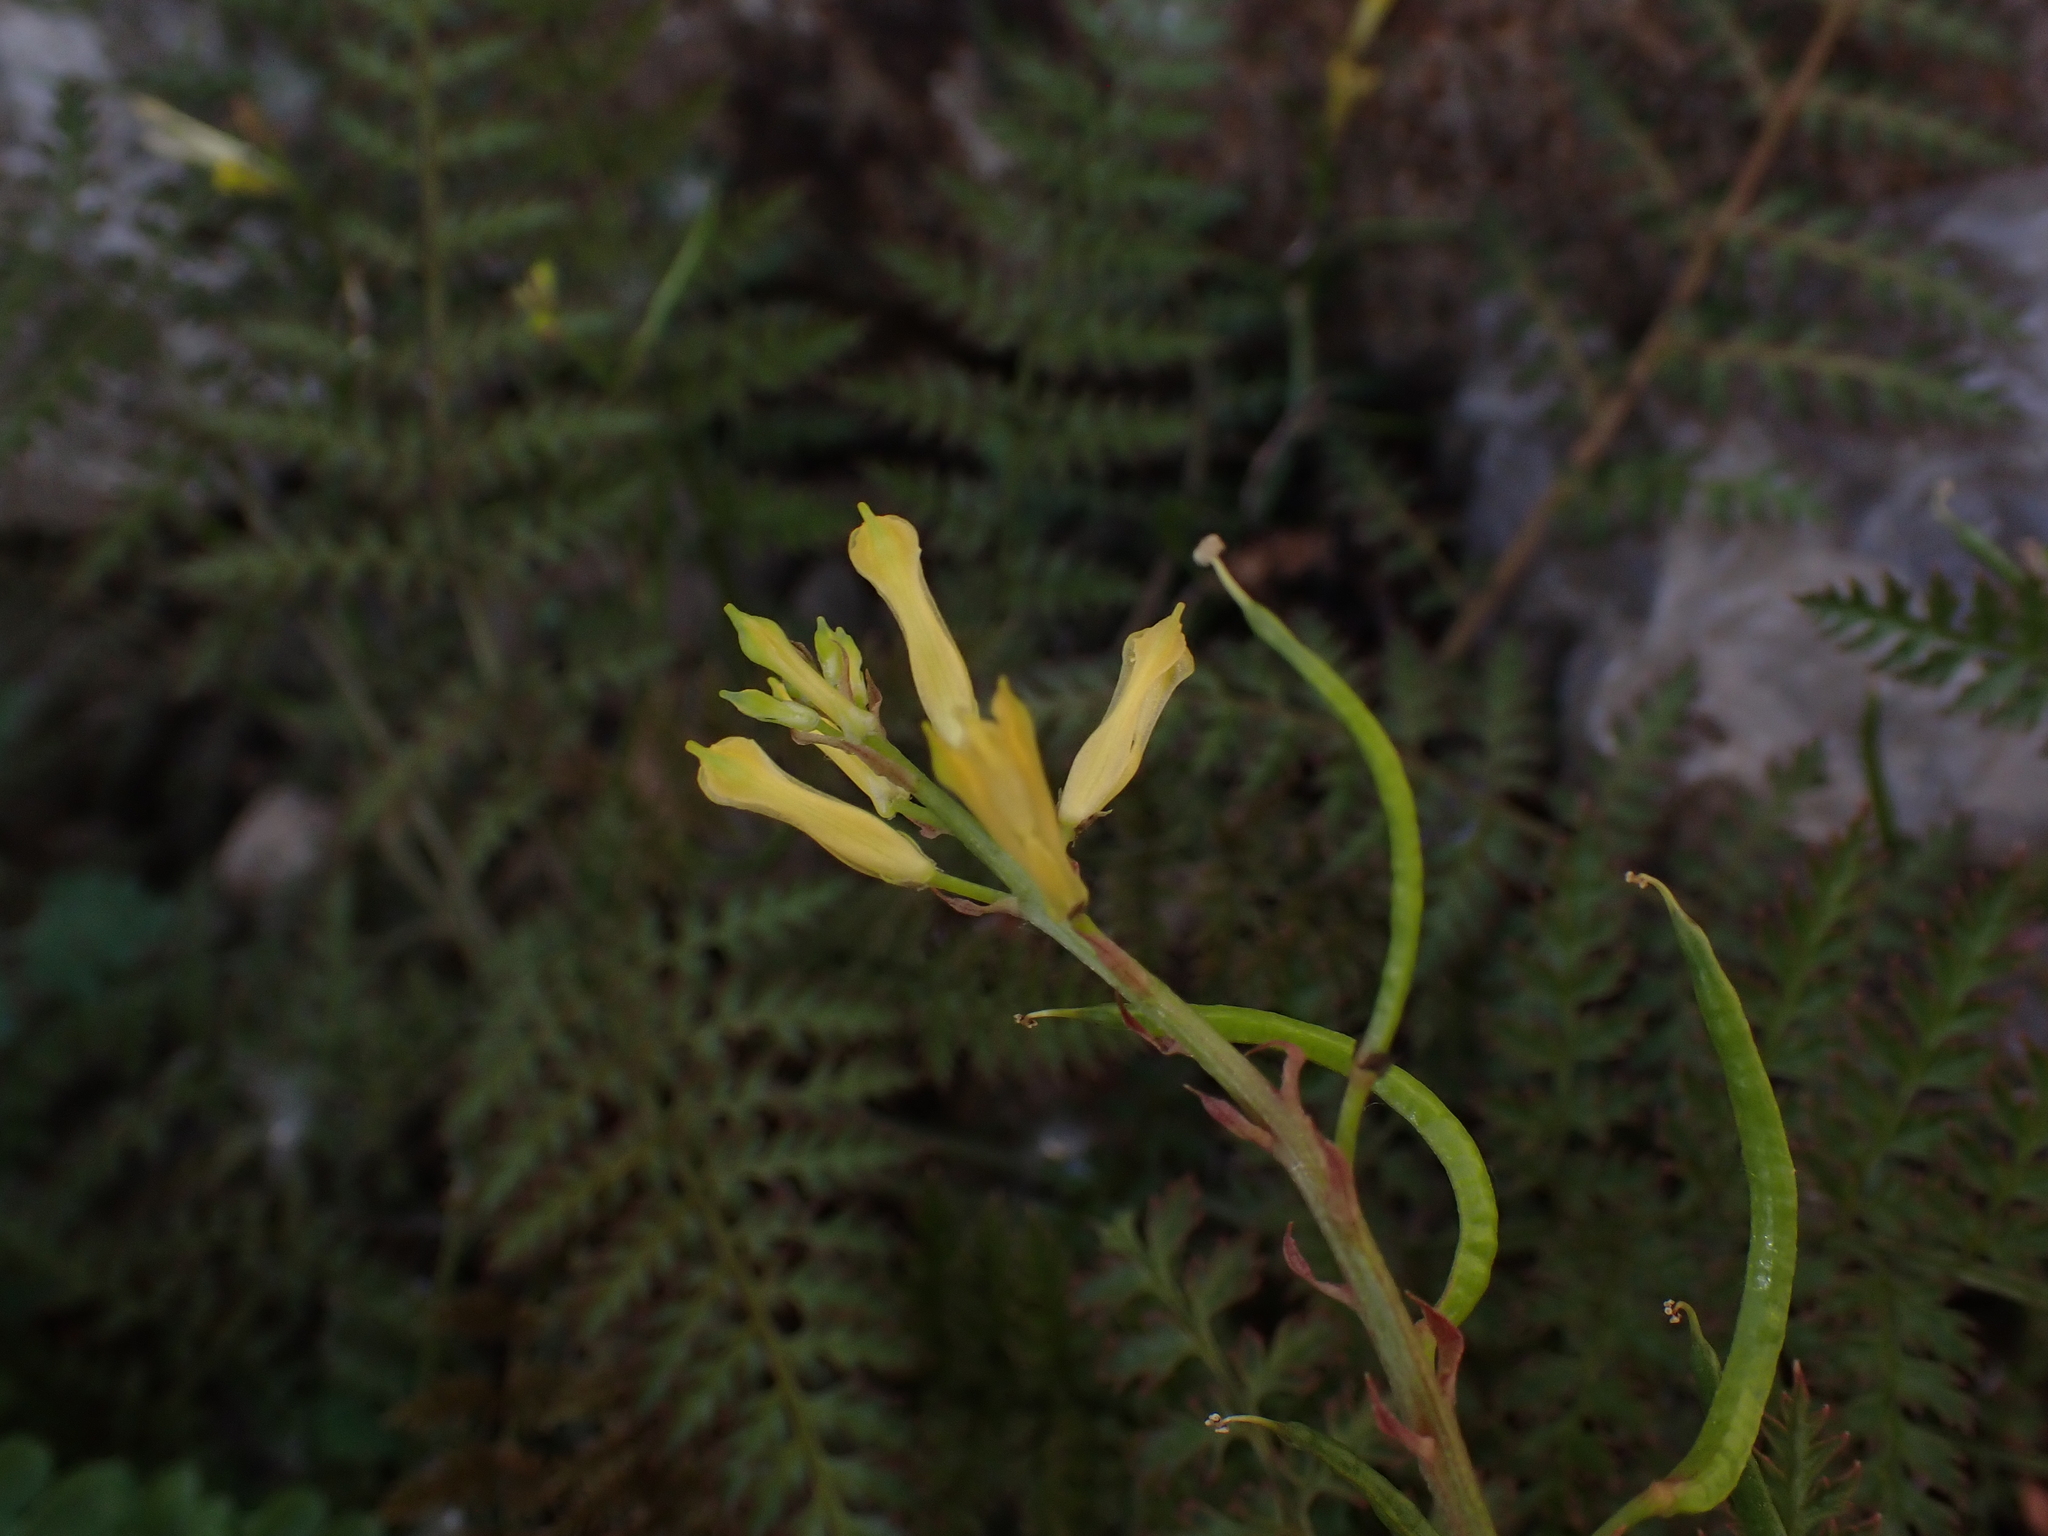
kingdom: Plantae
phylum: Tracheophyta
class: Magnoliopsida
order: Ranunculales
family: Papaveraceae
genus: Corydalis
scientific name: Corydalis cheilanthifolia
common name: Fern-leaved corydalis
